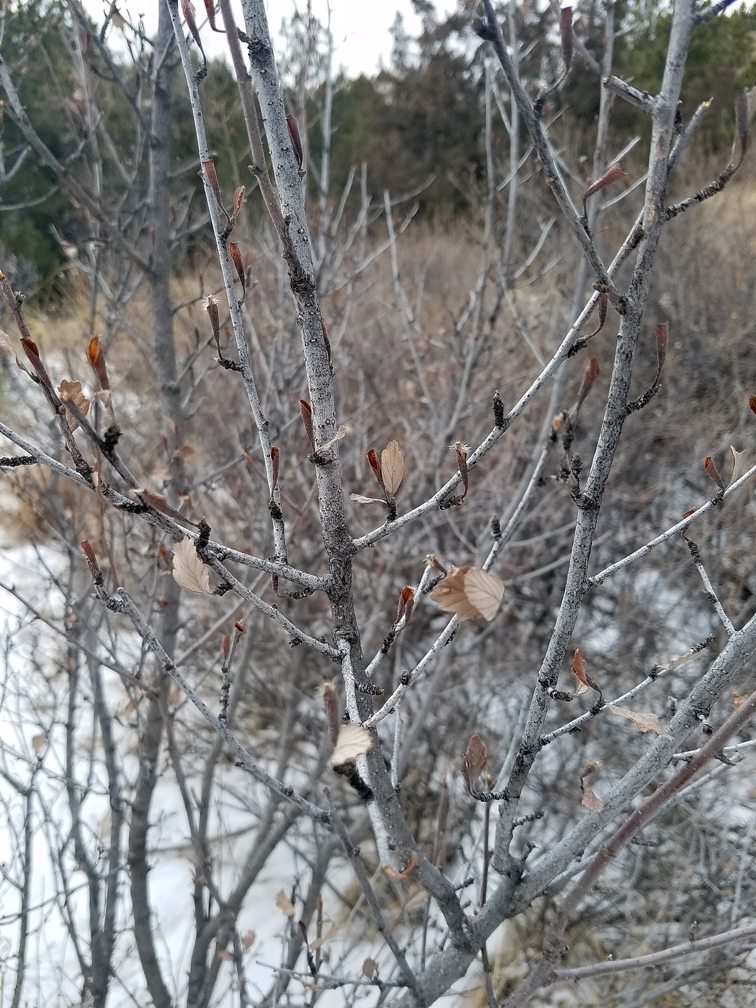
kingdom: Plantae
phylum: Tracheophyta
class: Magnoliopsida
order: Rosales
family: Rosaceae
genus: Cercocarpus
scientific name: Cercocarpus montanus
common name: Alder-leaf cercocarpus
